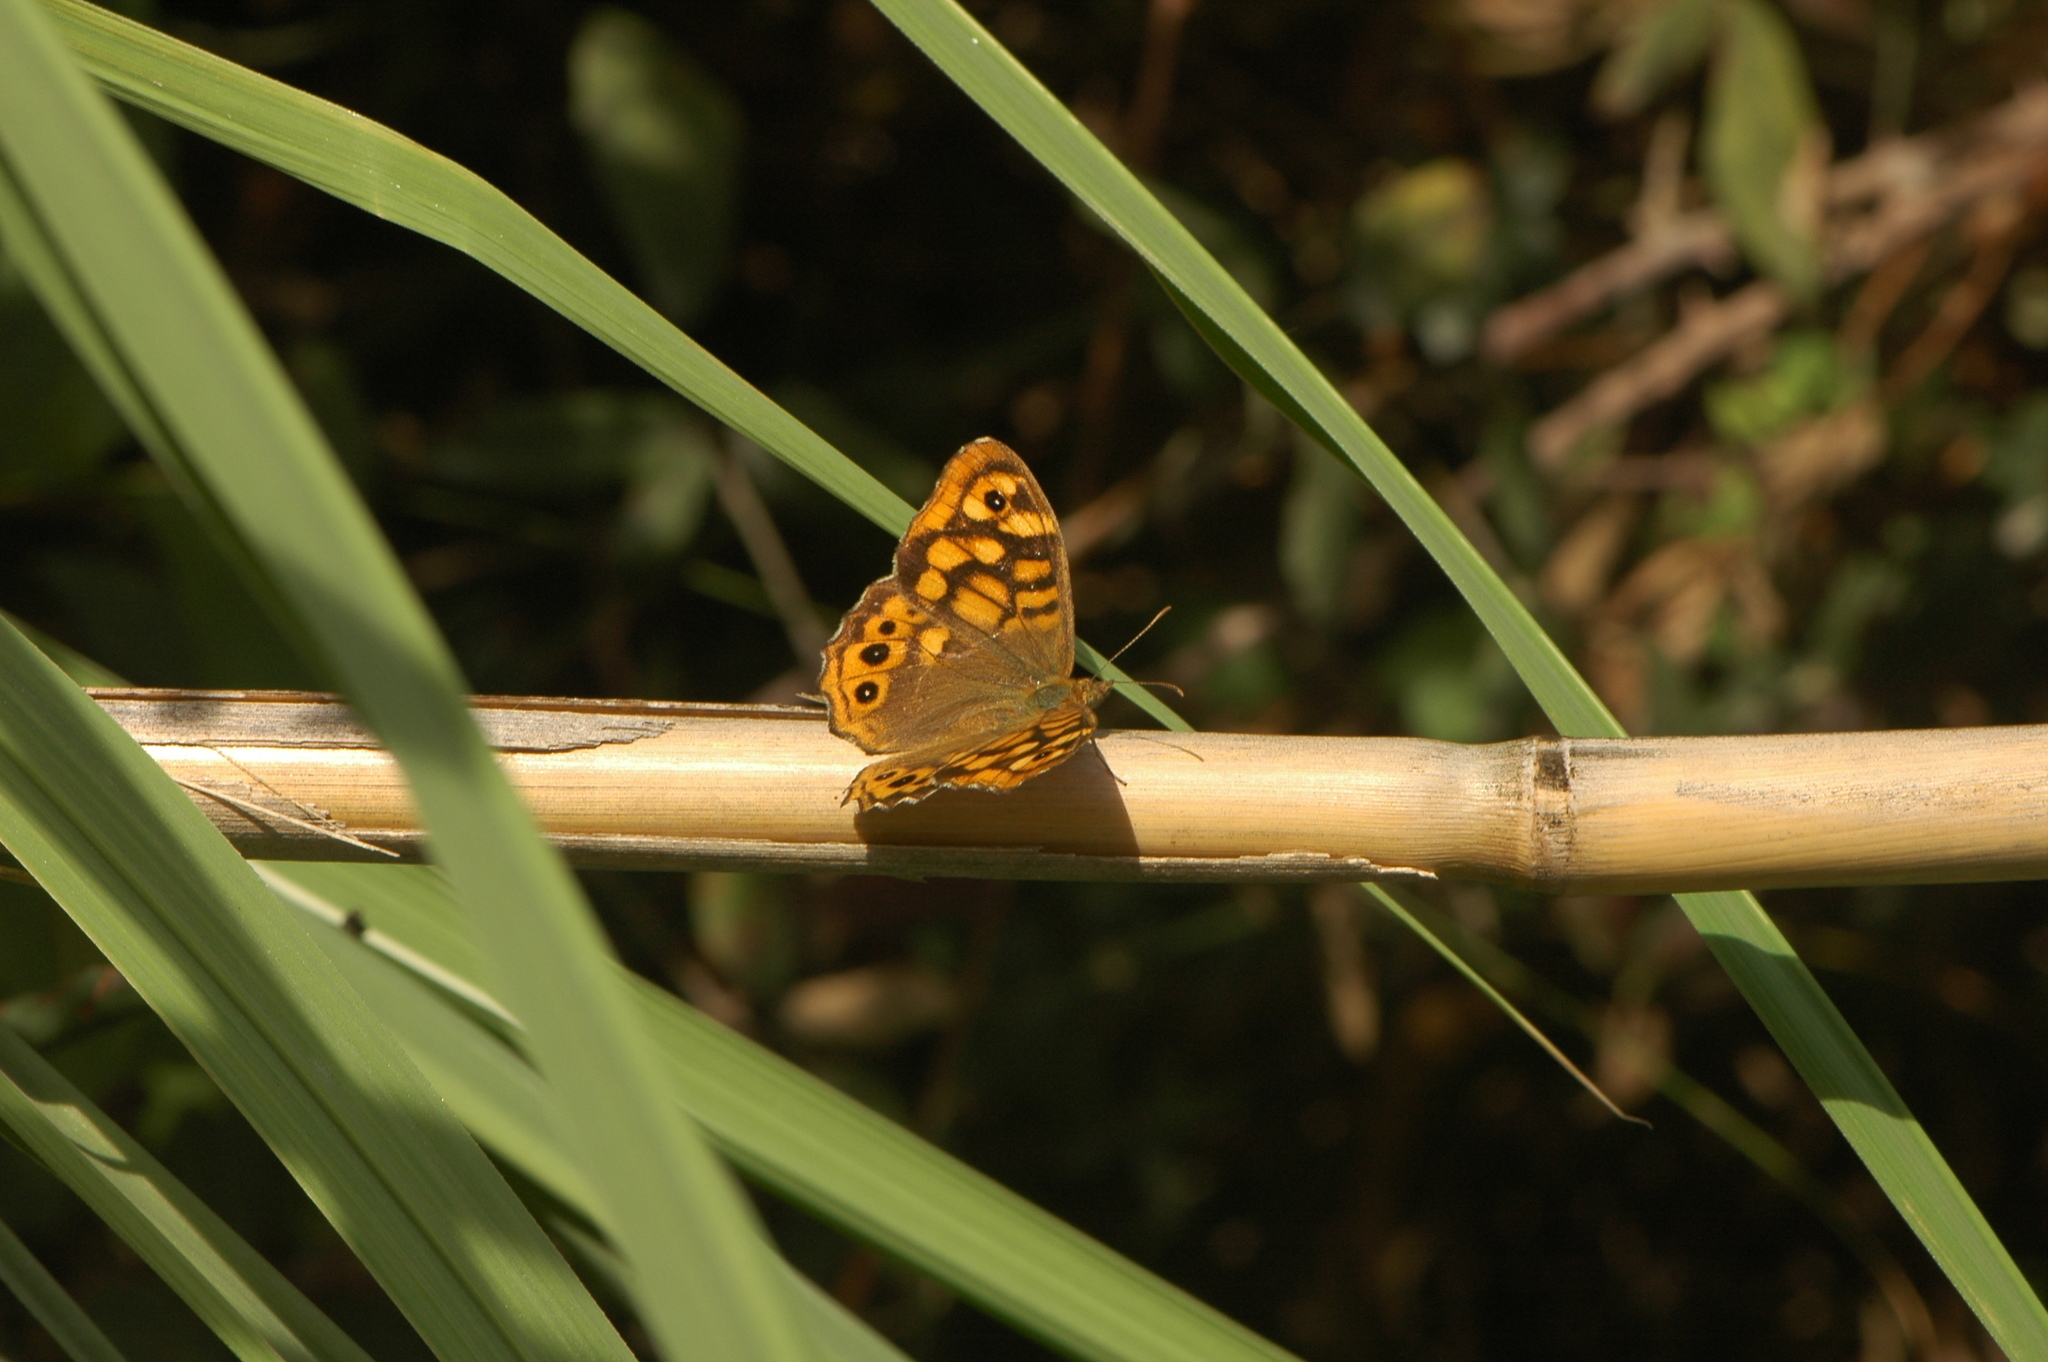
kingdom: Animalia
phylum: Arthropoda
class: Insecta
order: Lepidoptera
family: Nymphalidae
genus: Pararge
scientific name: Pararge aegeria
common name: Speckled wood
